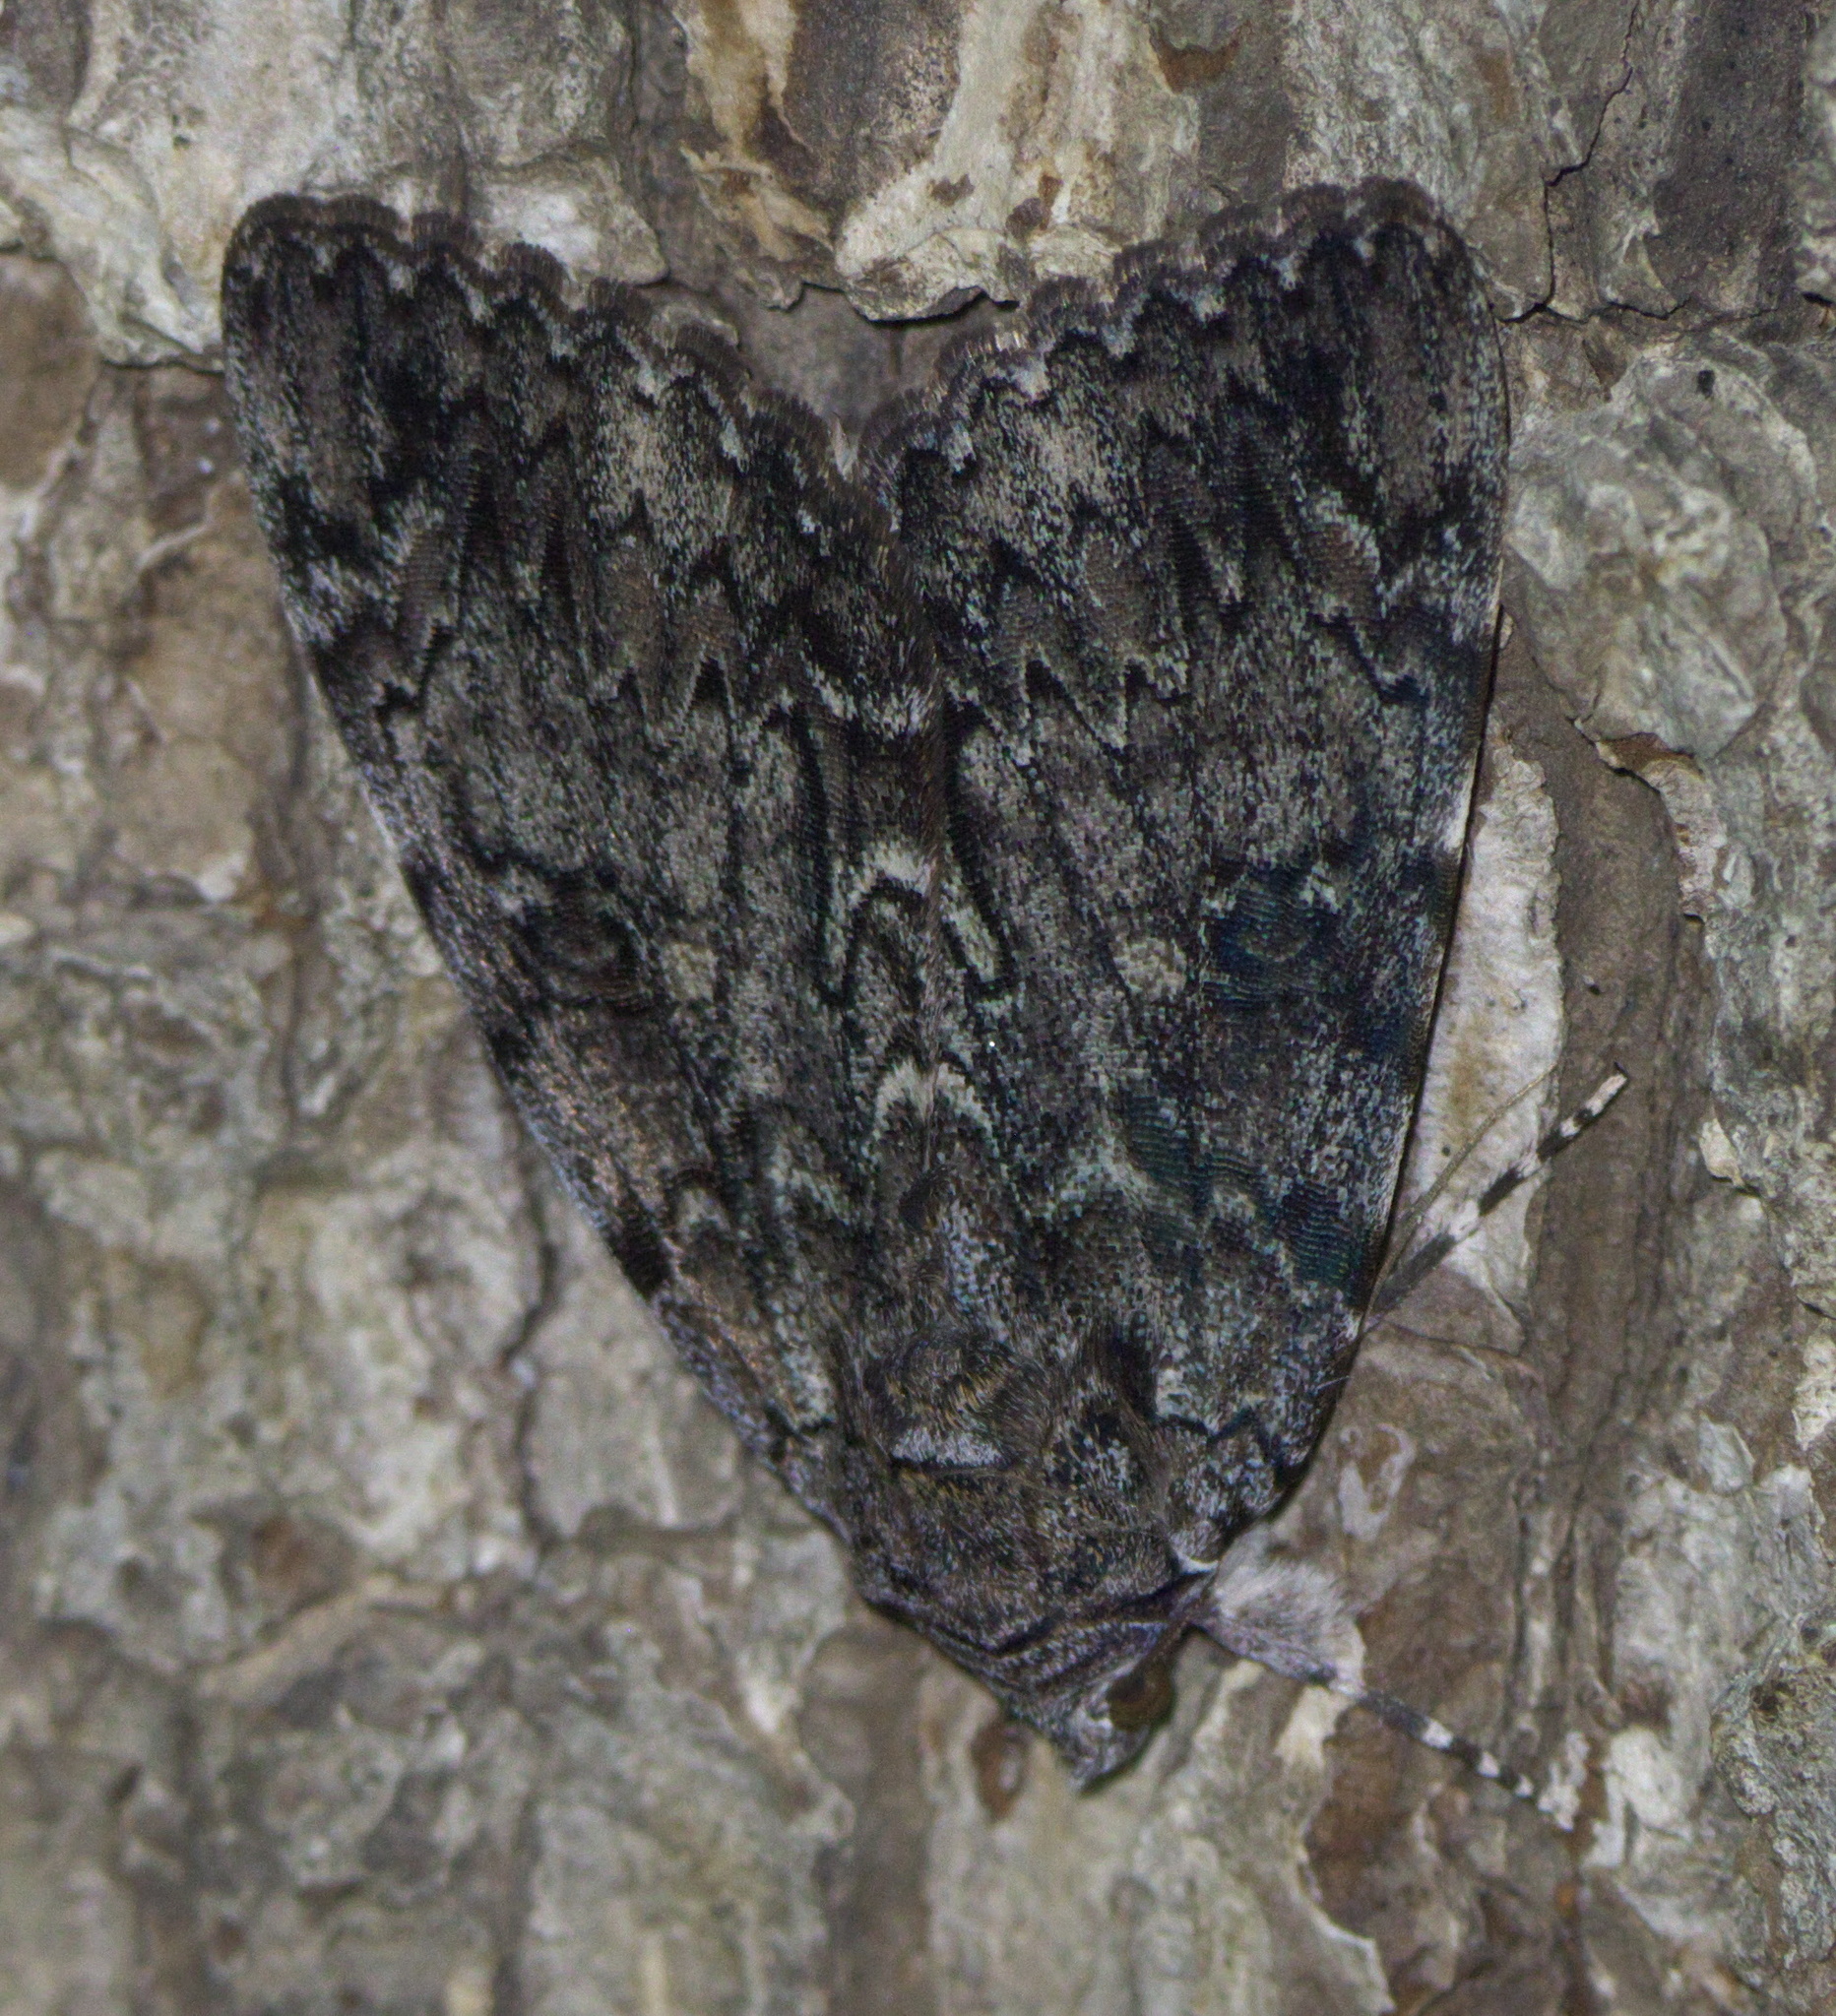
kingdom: Animalia
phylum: Arthropoda
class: Insecta
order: Lepidoptera
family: Erebidae
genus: Catocala
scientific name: Catocala lacrymosa
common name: Tearful underwing
